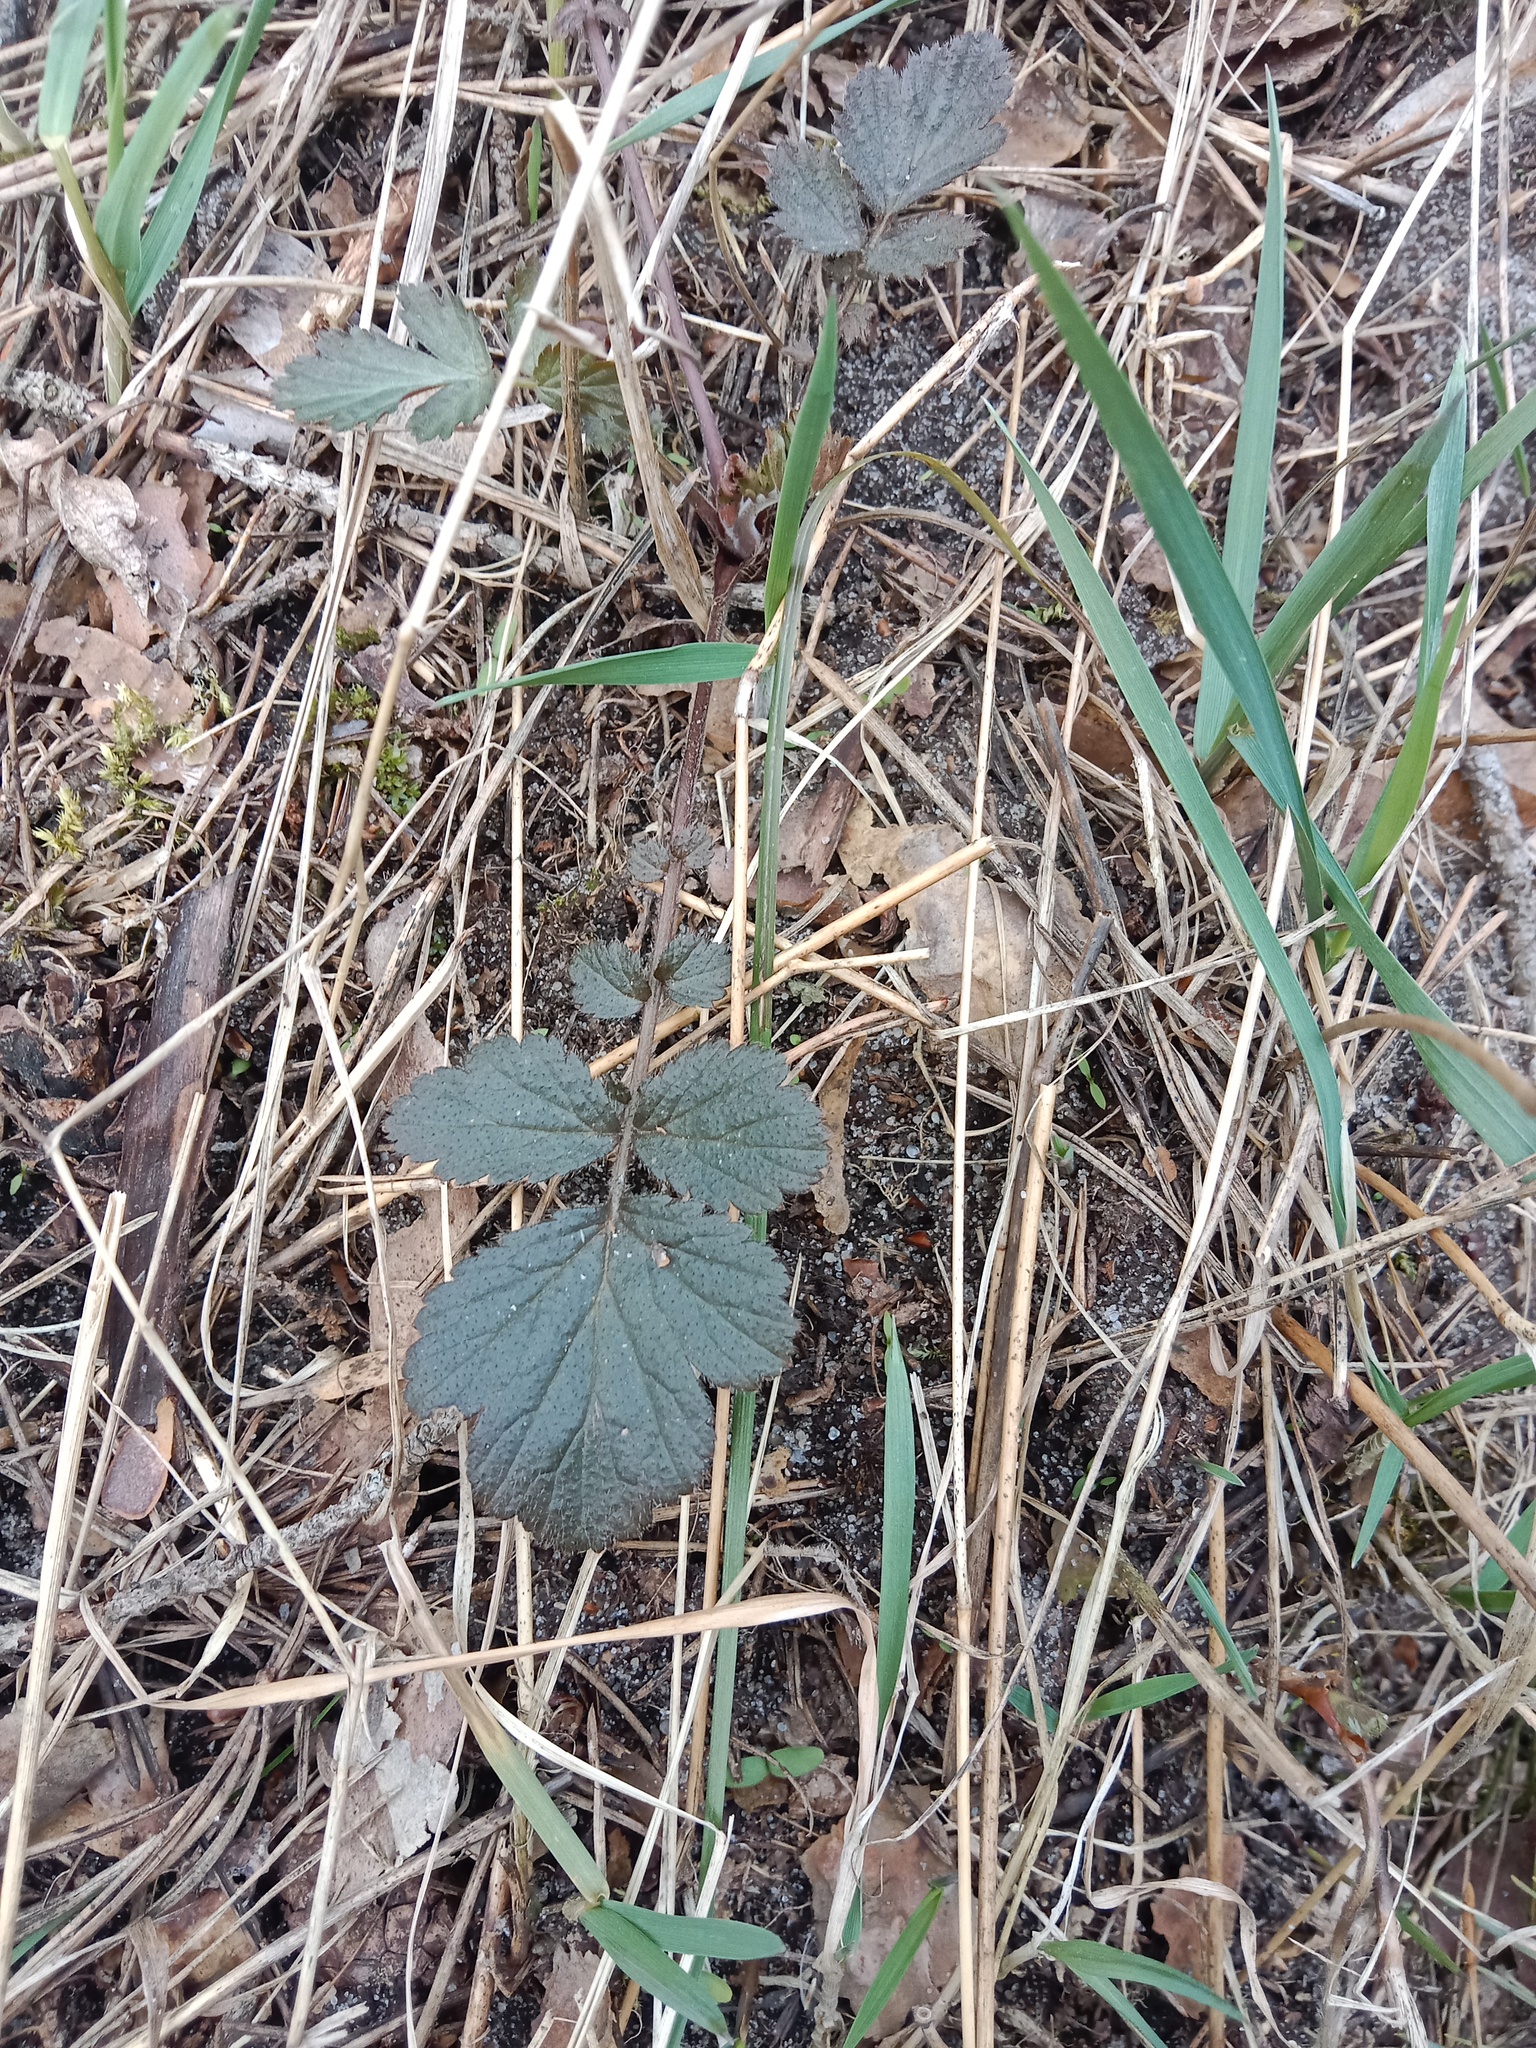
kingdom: Plantae
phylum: Tracheophyta
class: Magnoliopsida
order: Rosales
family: Rosaceae
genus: Geum
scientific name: Geum urbanum
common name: Wood avens
